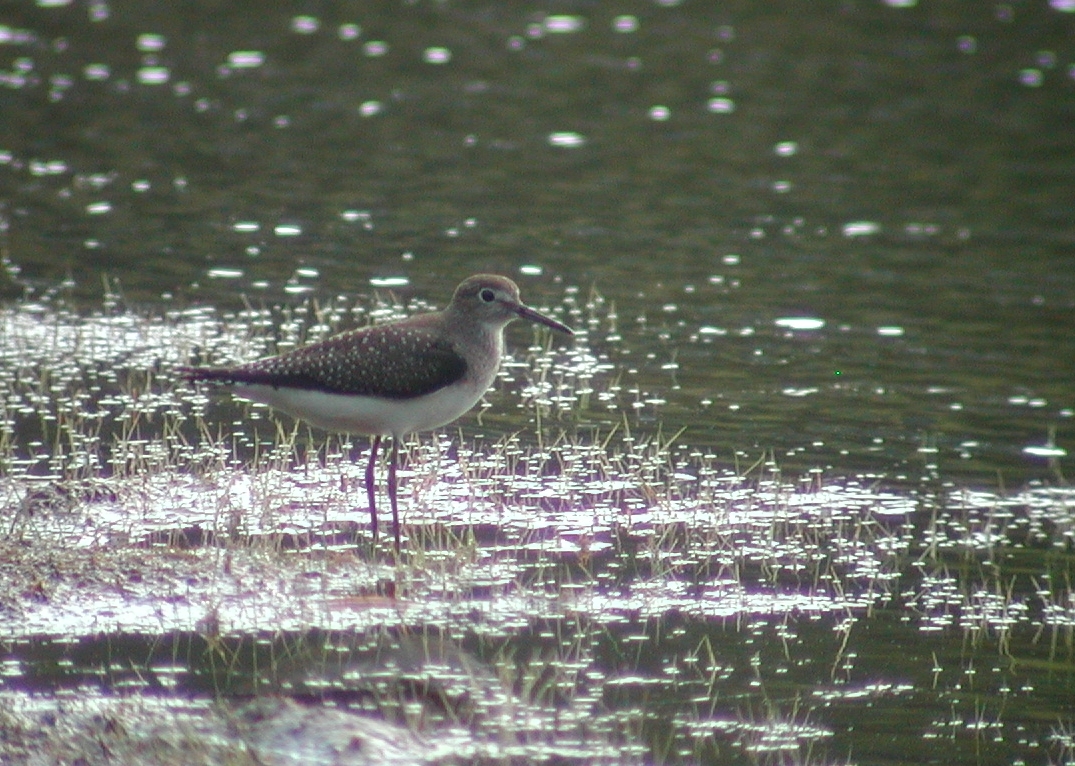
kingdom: Animalia
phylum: Chordata
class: Aves
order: Charadriiformes
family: Scolopacidae
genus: Tringa
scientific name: Tringa solitaria
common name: Solitary sandpiper
